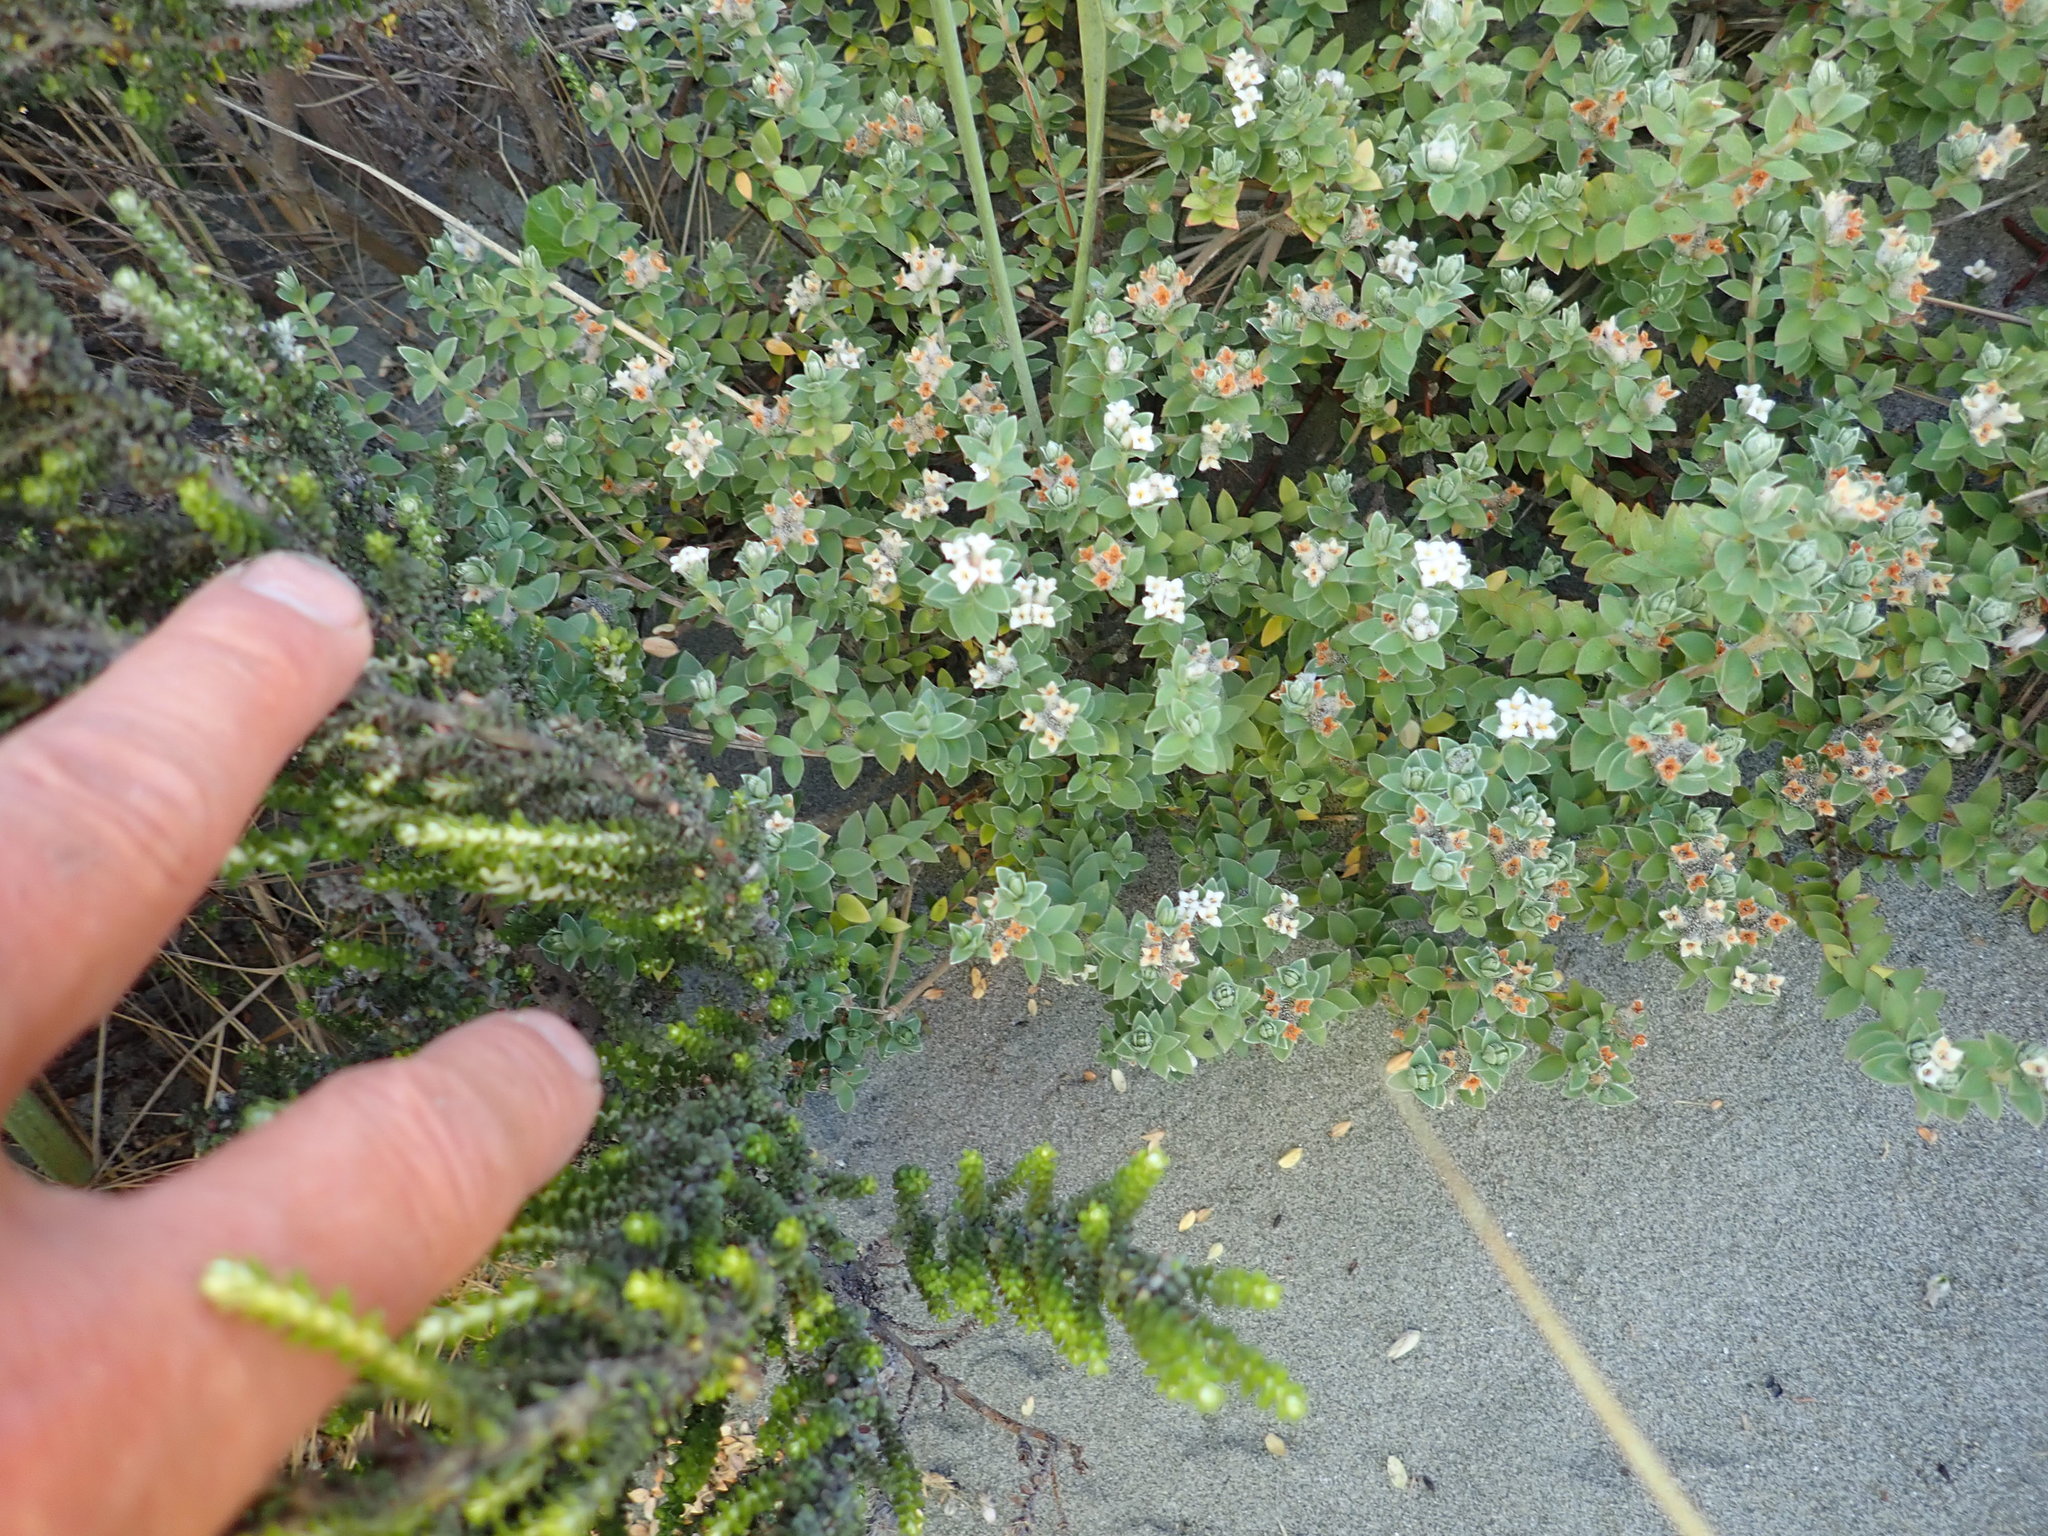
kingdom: Plantae
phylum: Tracheophyta
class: Magnoliopsida
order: Malvales
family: Thymelaeaceae
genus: Pimelea
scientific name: Pimelea villosa
